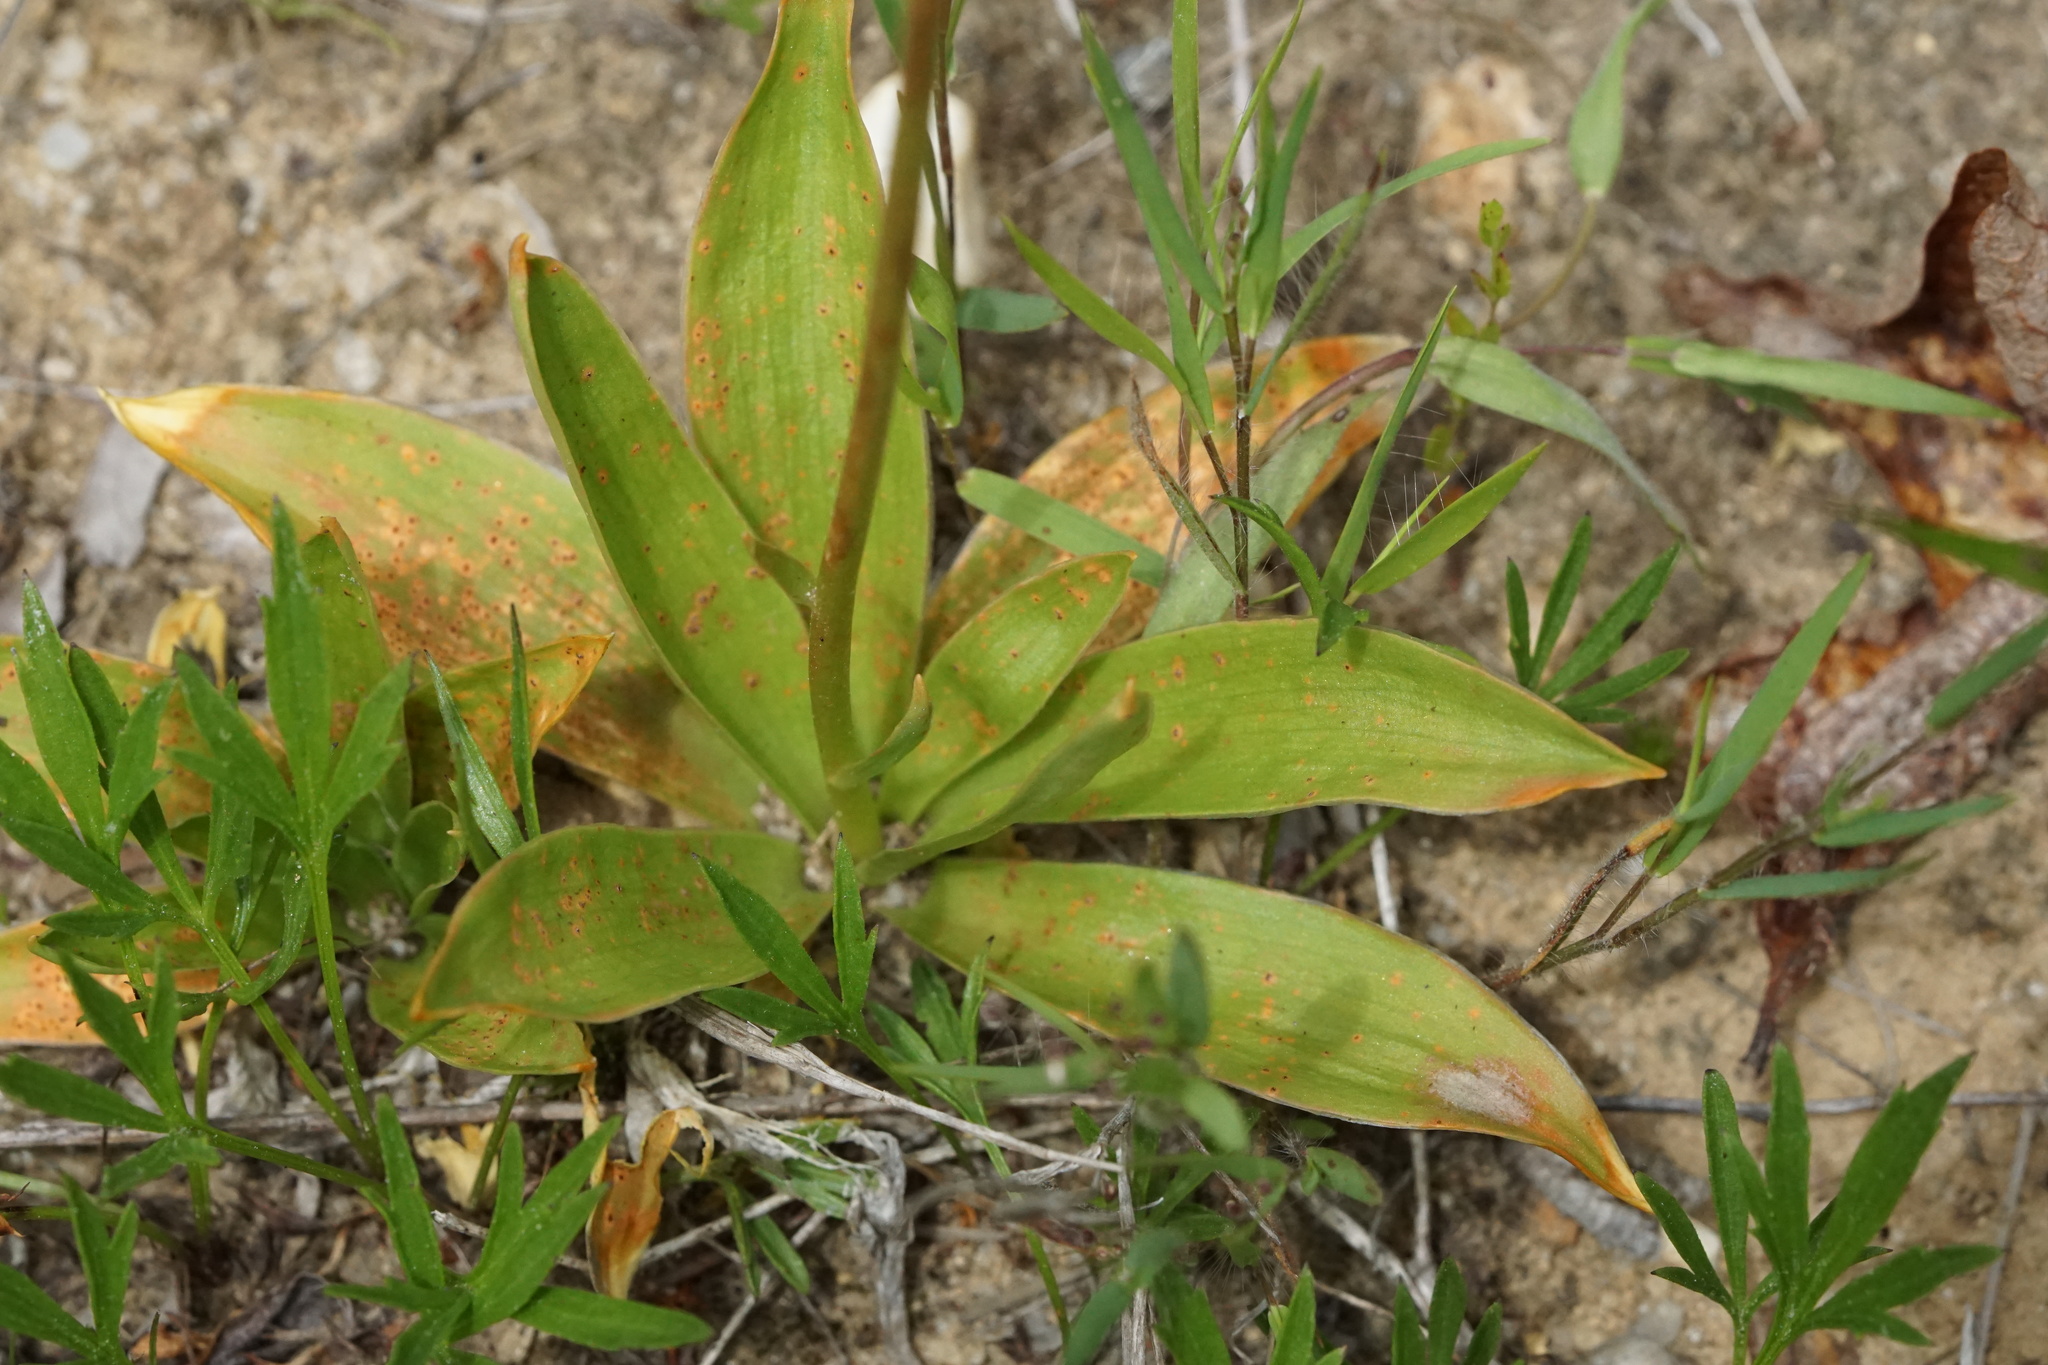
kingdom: Plantae
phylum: Tracheophyta
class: Liliopsida
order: Dioscoreales
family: Nartheciaceae
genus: Aletris
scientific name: Aletris farinosa
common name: Colicroot
